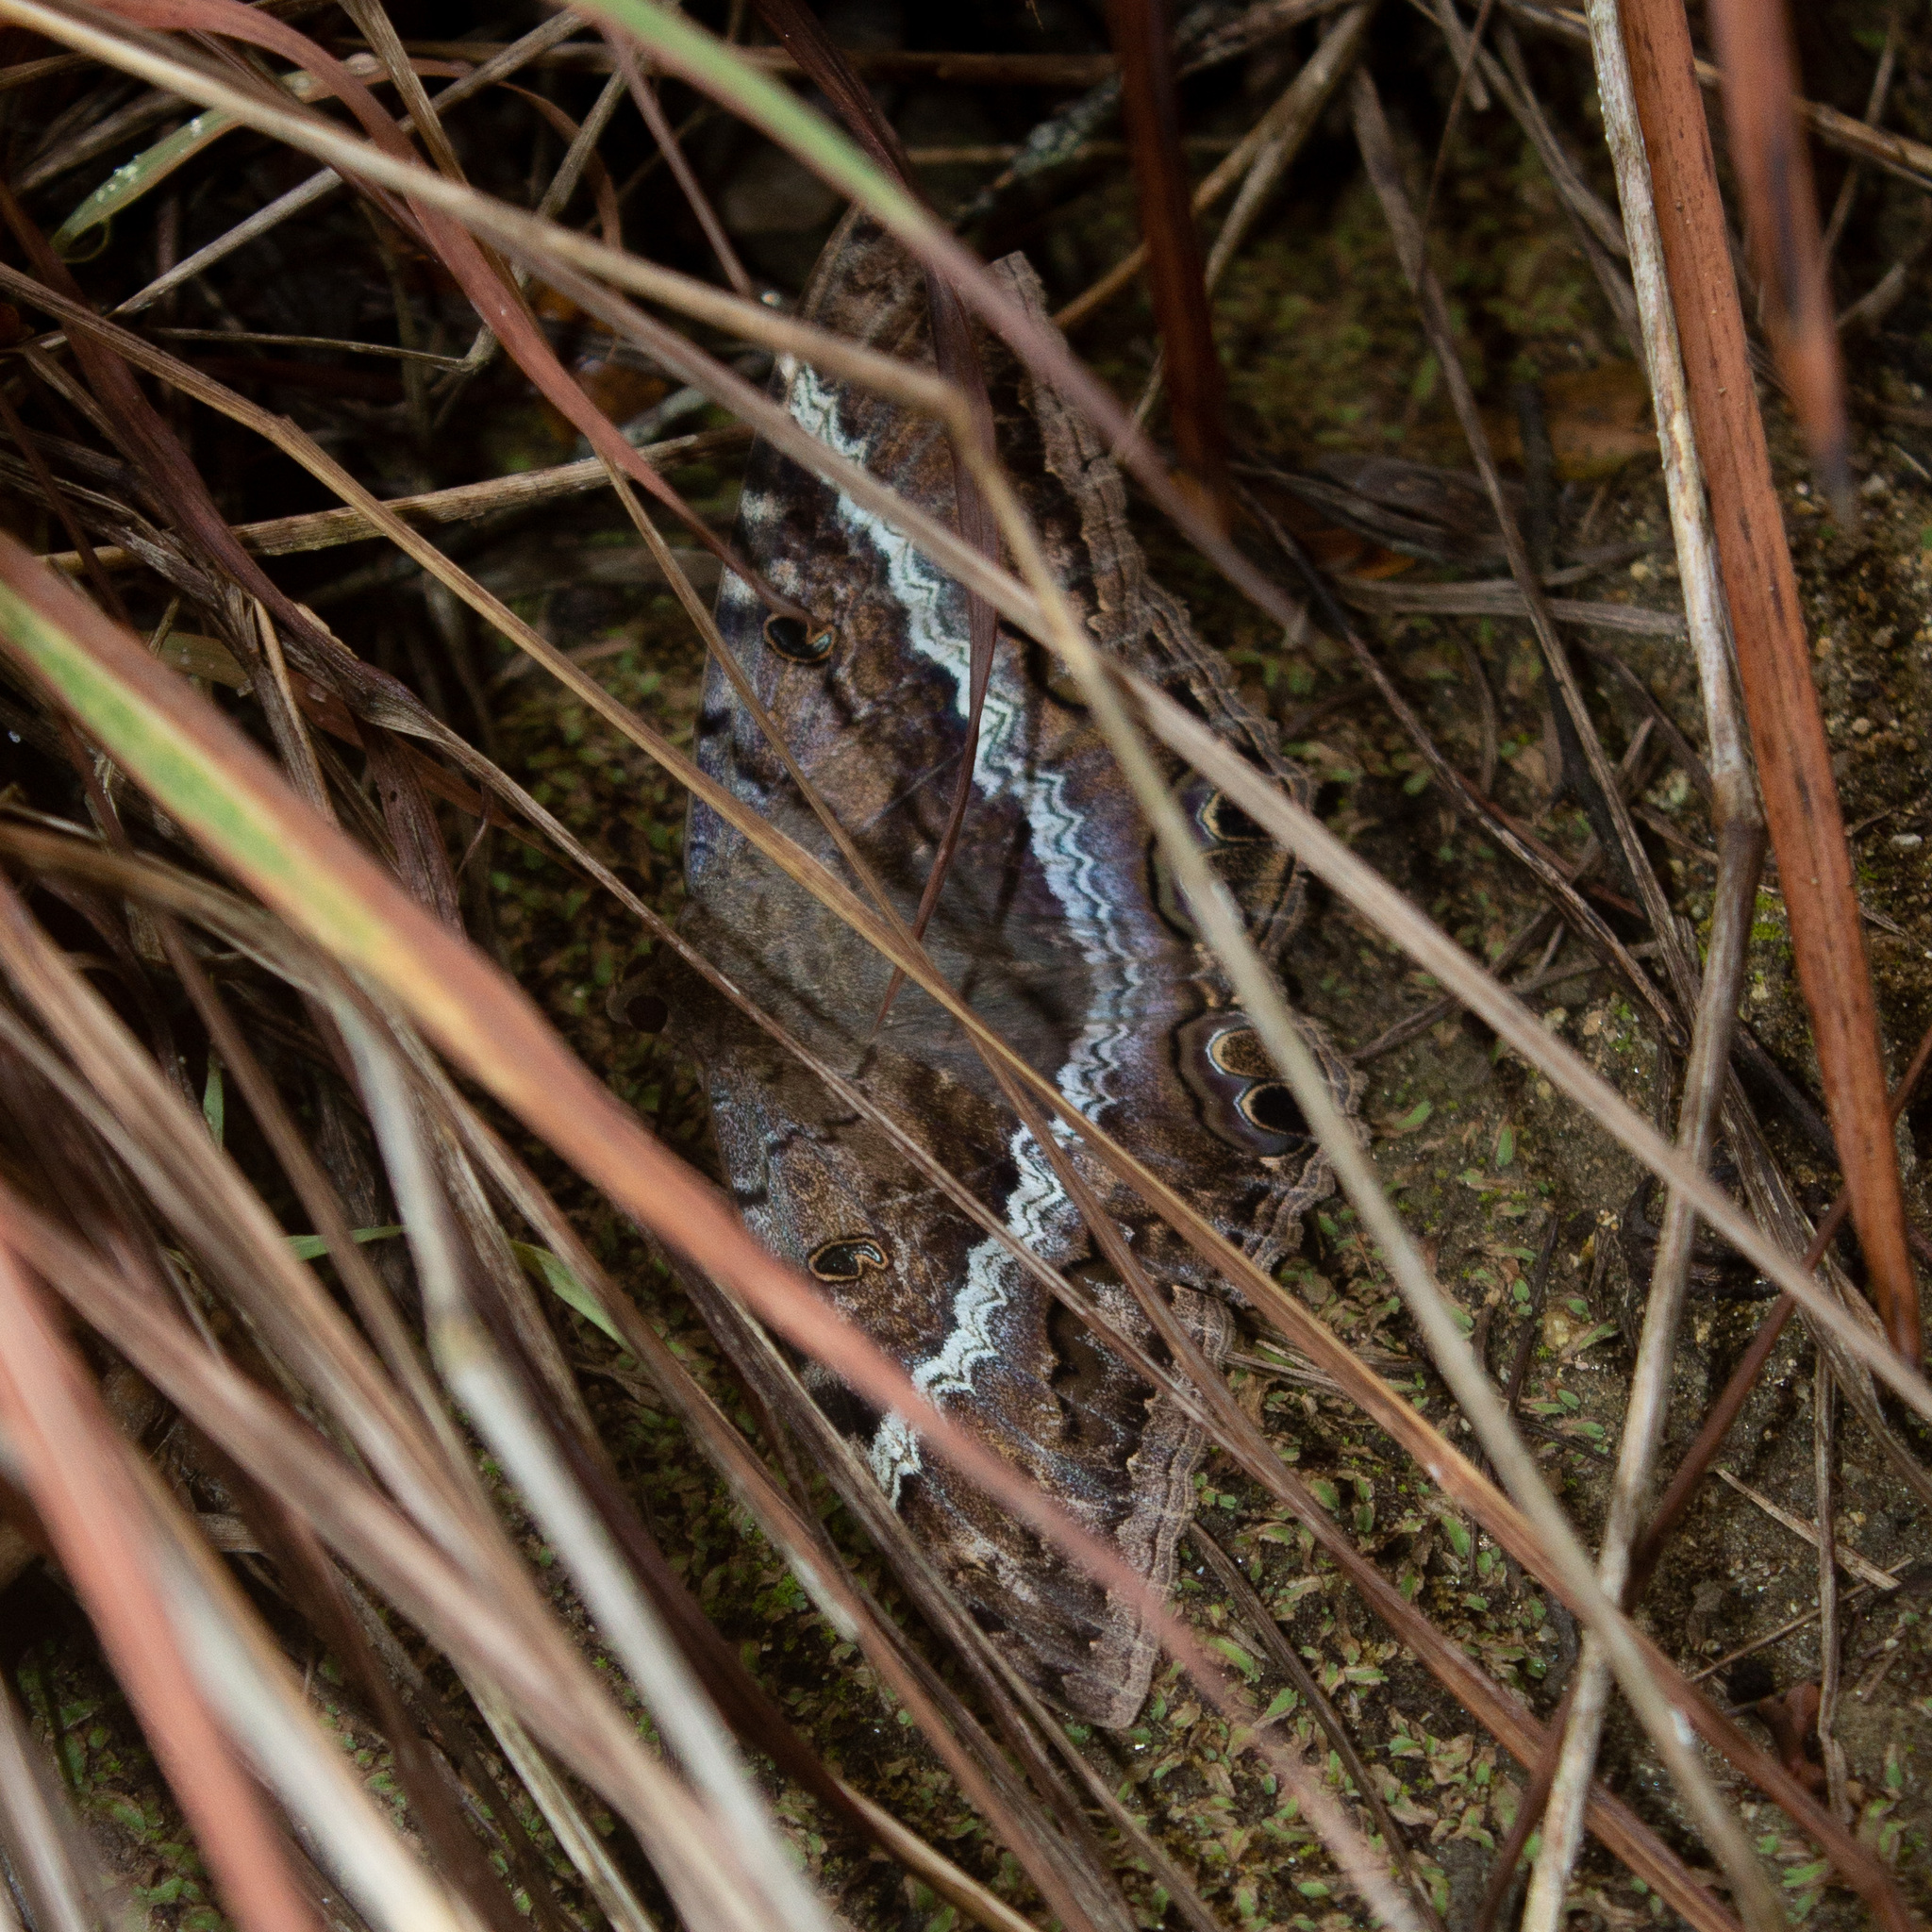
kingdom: Animalia
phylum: Arthropoda
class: Insecta
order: Lepidoptera
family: Erebidae
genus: Ascalapha
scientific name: Ascalapha odorata
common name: Black witch
